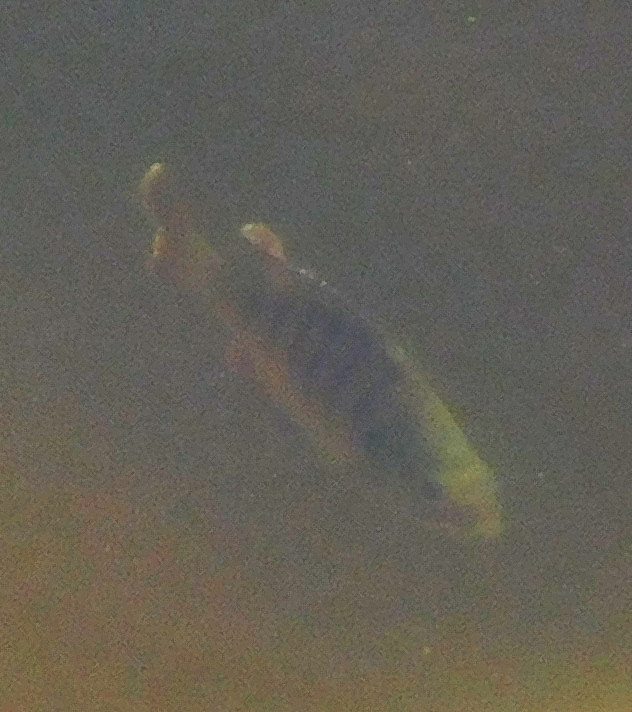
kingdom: Animalia
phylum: Chordata
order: Perciformes
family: Centrarchidae
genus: Lepomis
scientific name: Lepomis macrochirus
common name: Bluegill
